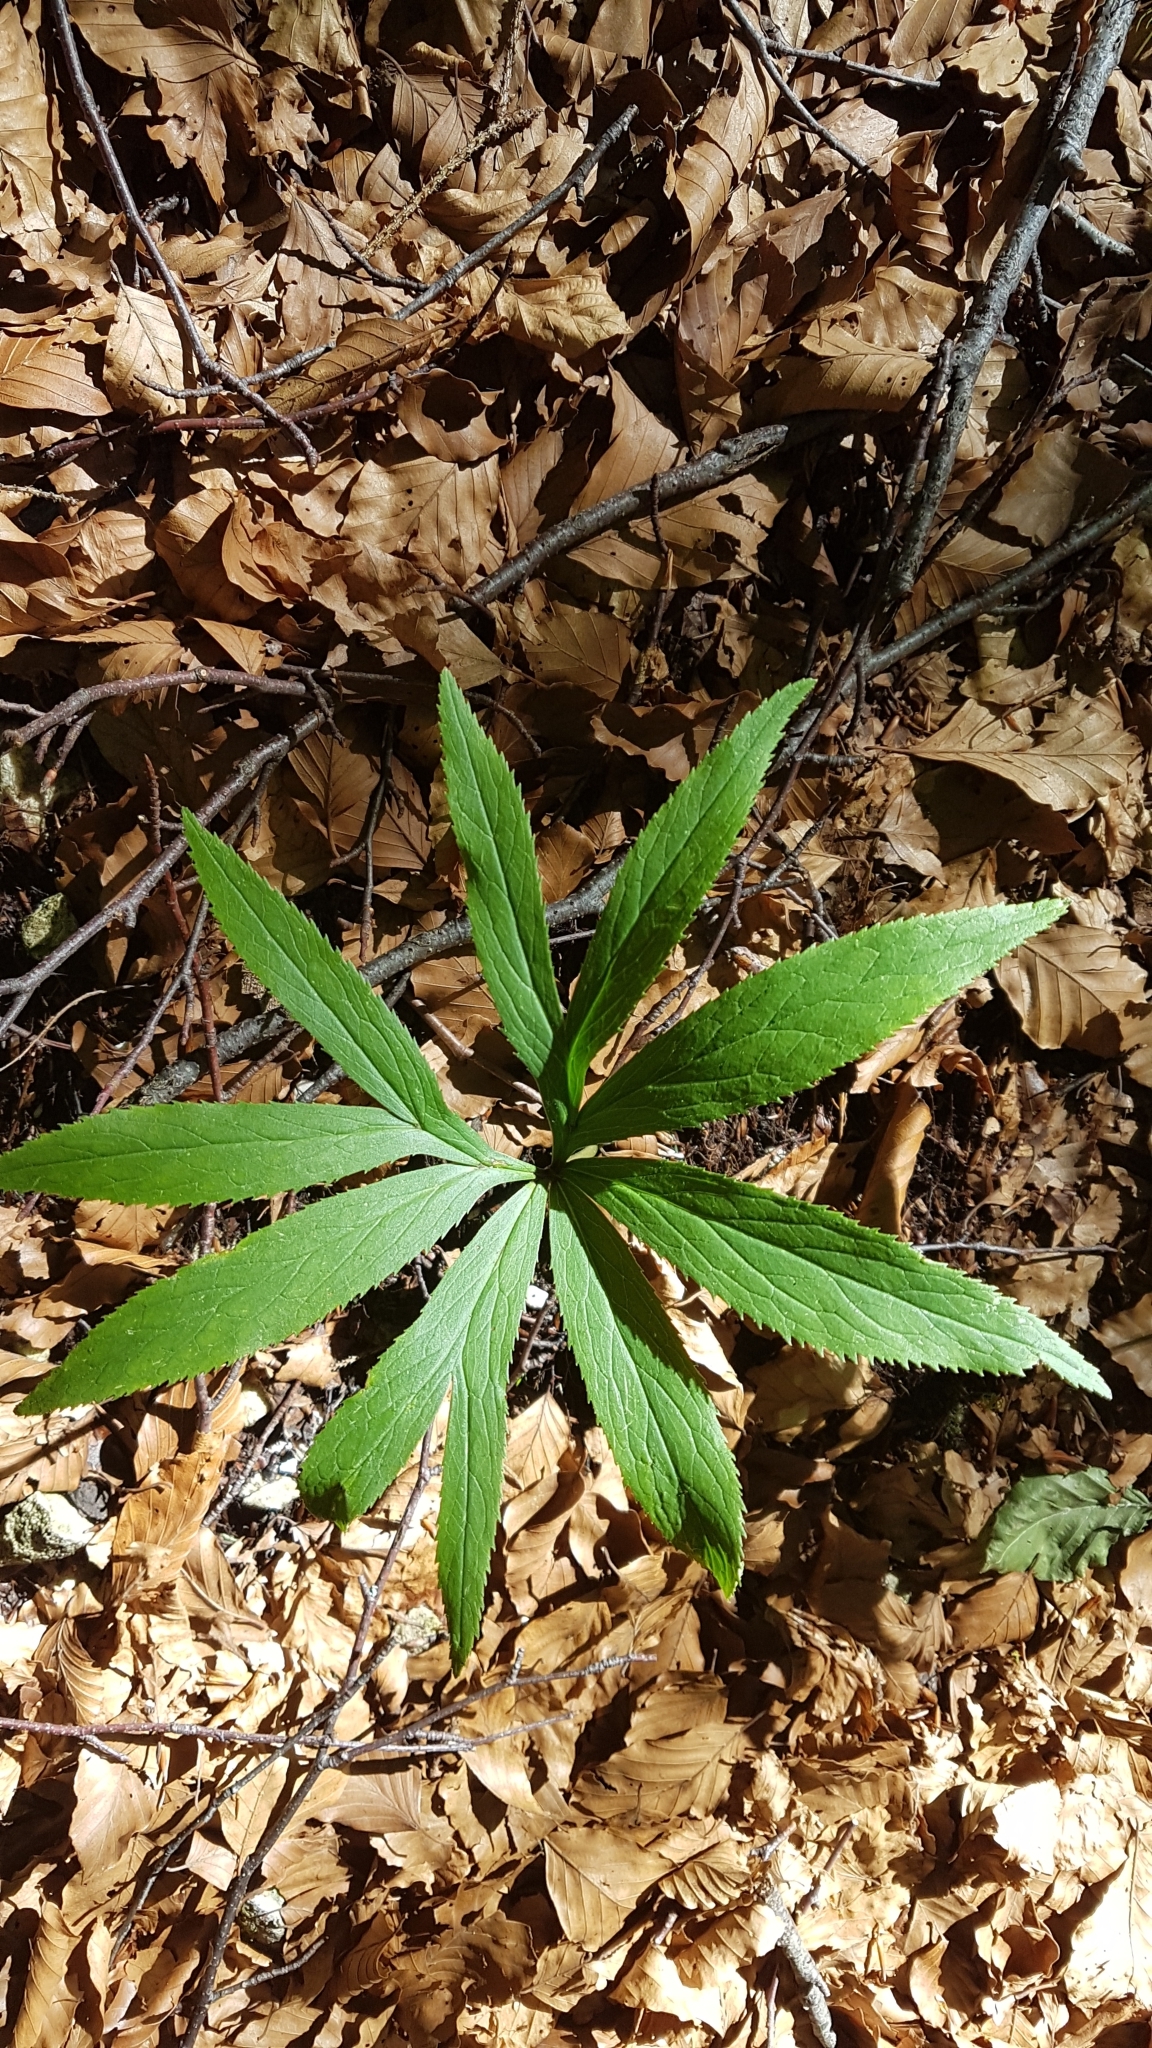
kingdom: Plantae
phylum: Tracheophyta
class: Magnoliopsida
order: Ranunculales
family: Ranunculaceae
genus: Helleborus
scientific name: Helleborus viridis
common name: Green hellebore
